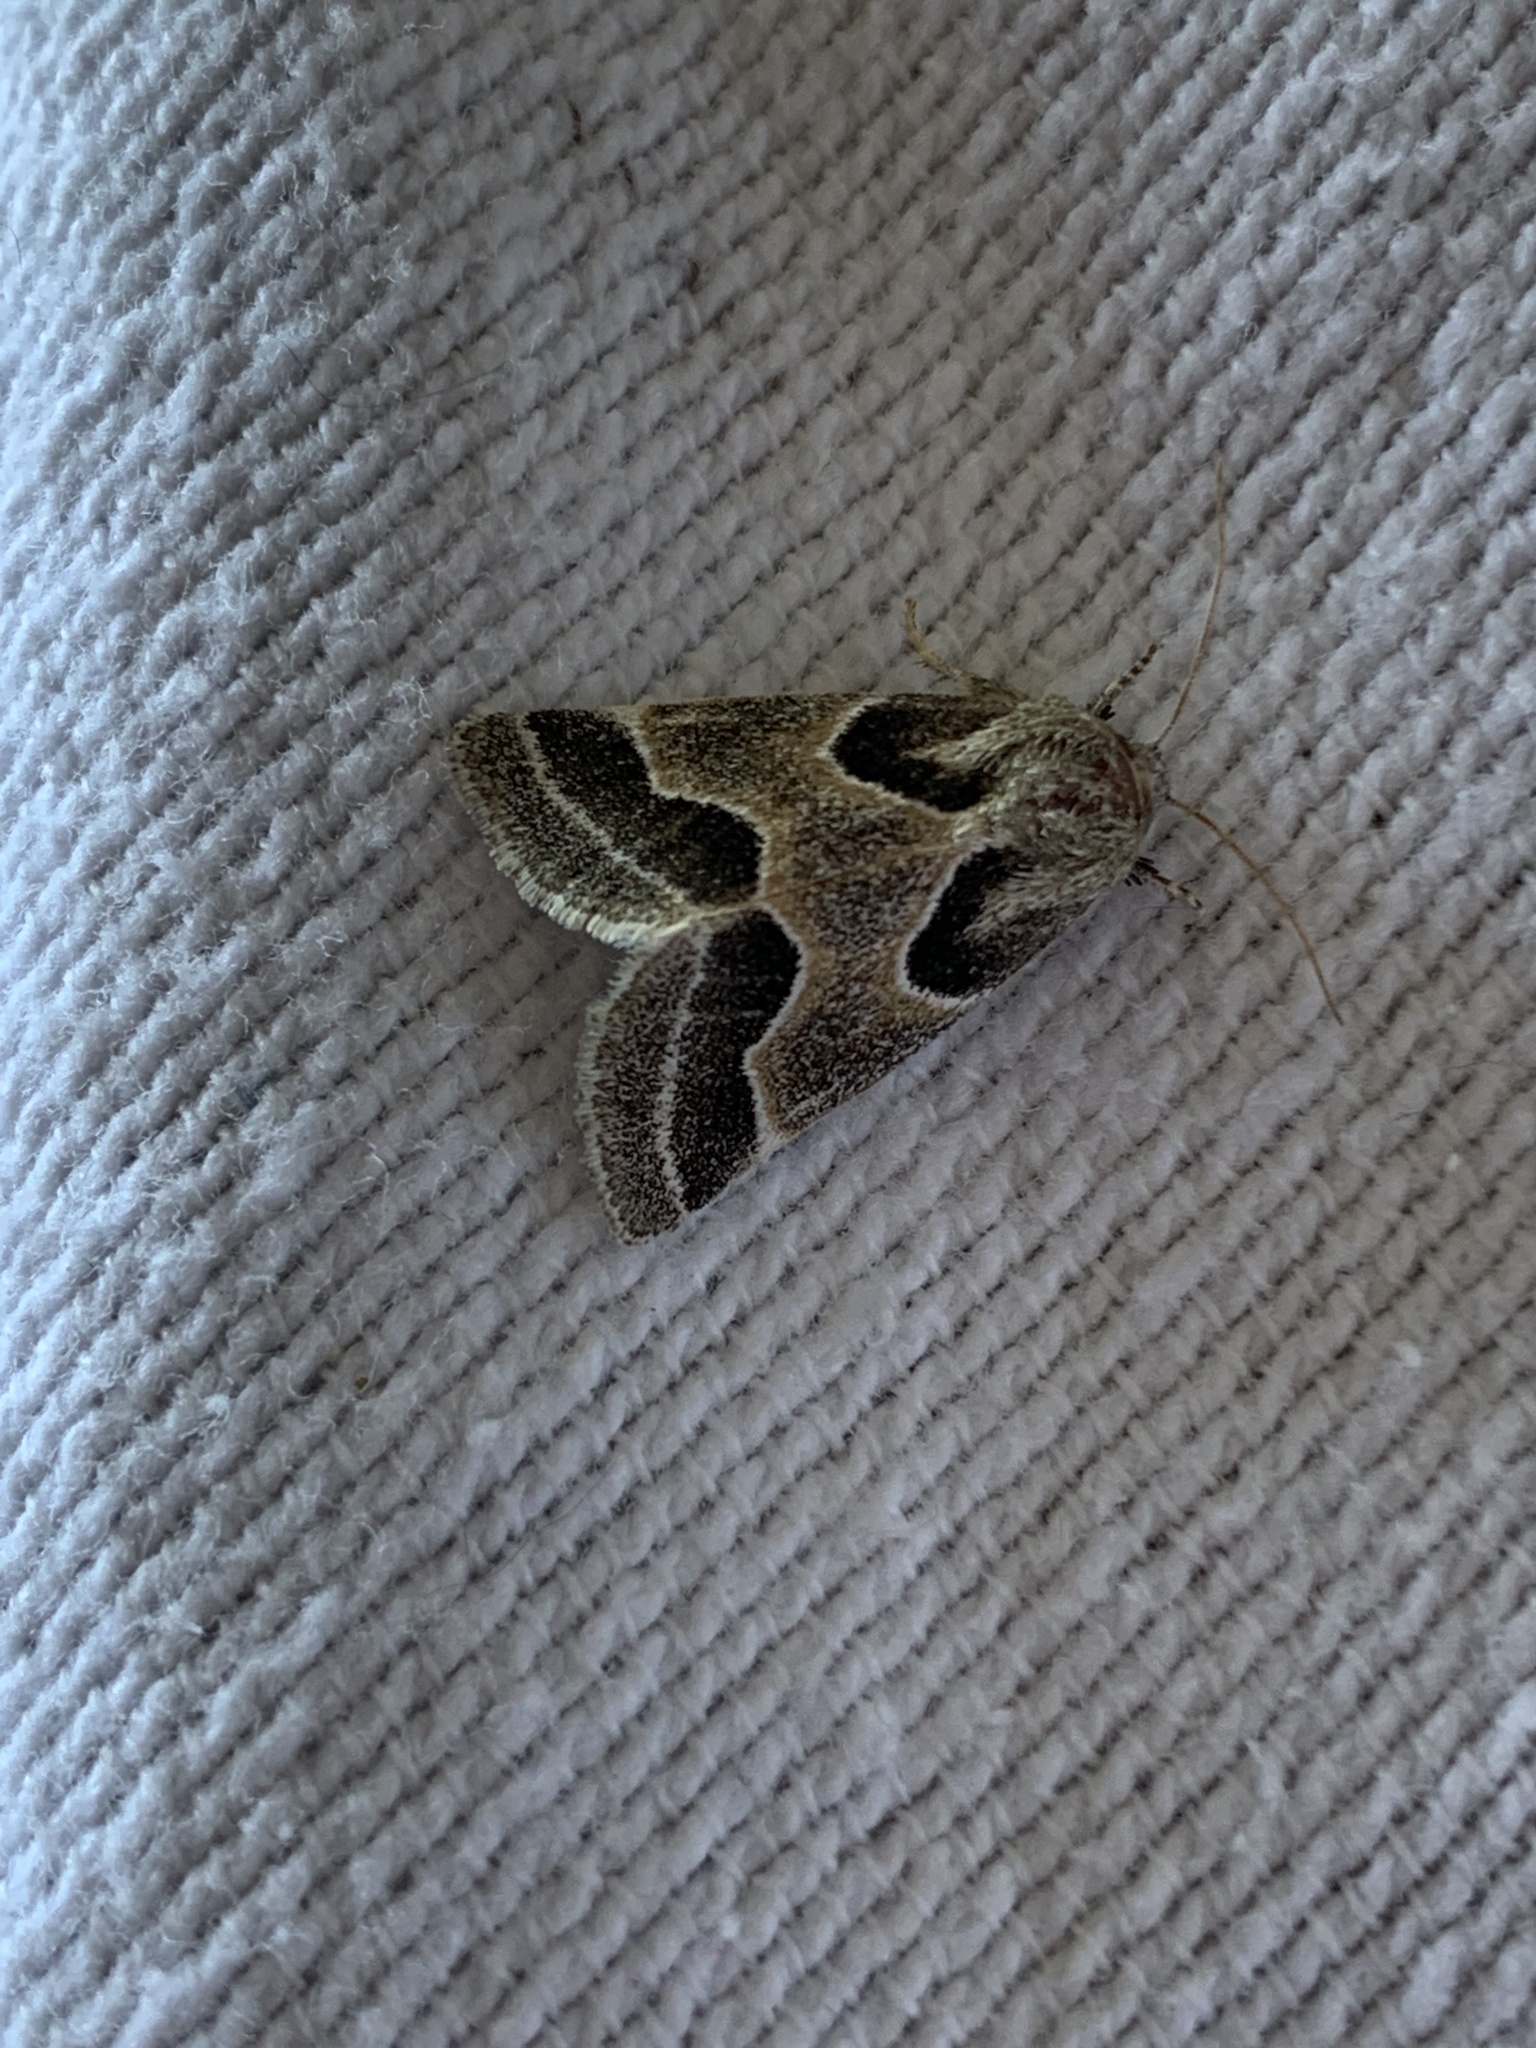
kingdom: Animalia
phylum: Arthropoda
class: Insecta
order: Lepidoptera
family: Noctuidae
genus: Schinia
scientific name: Schinia rivulosa
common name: Scarce meal-moth
